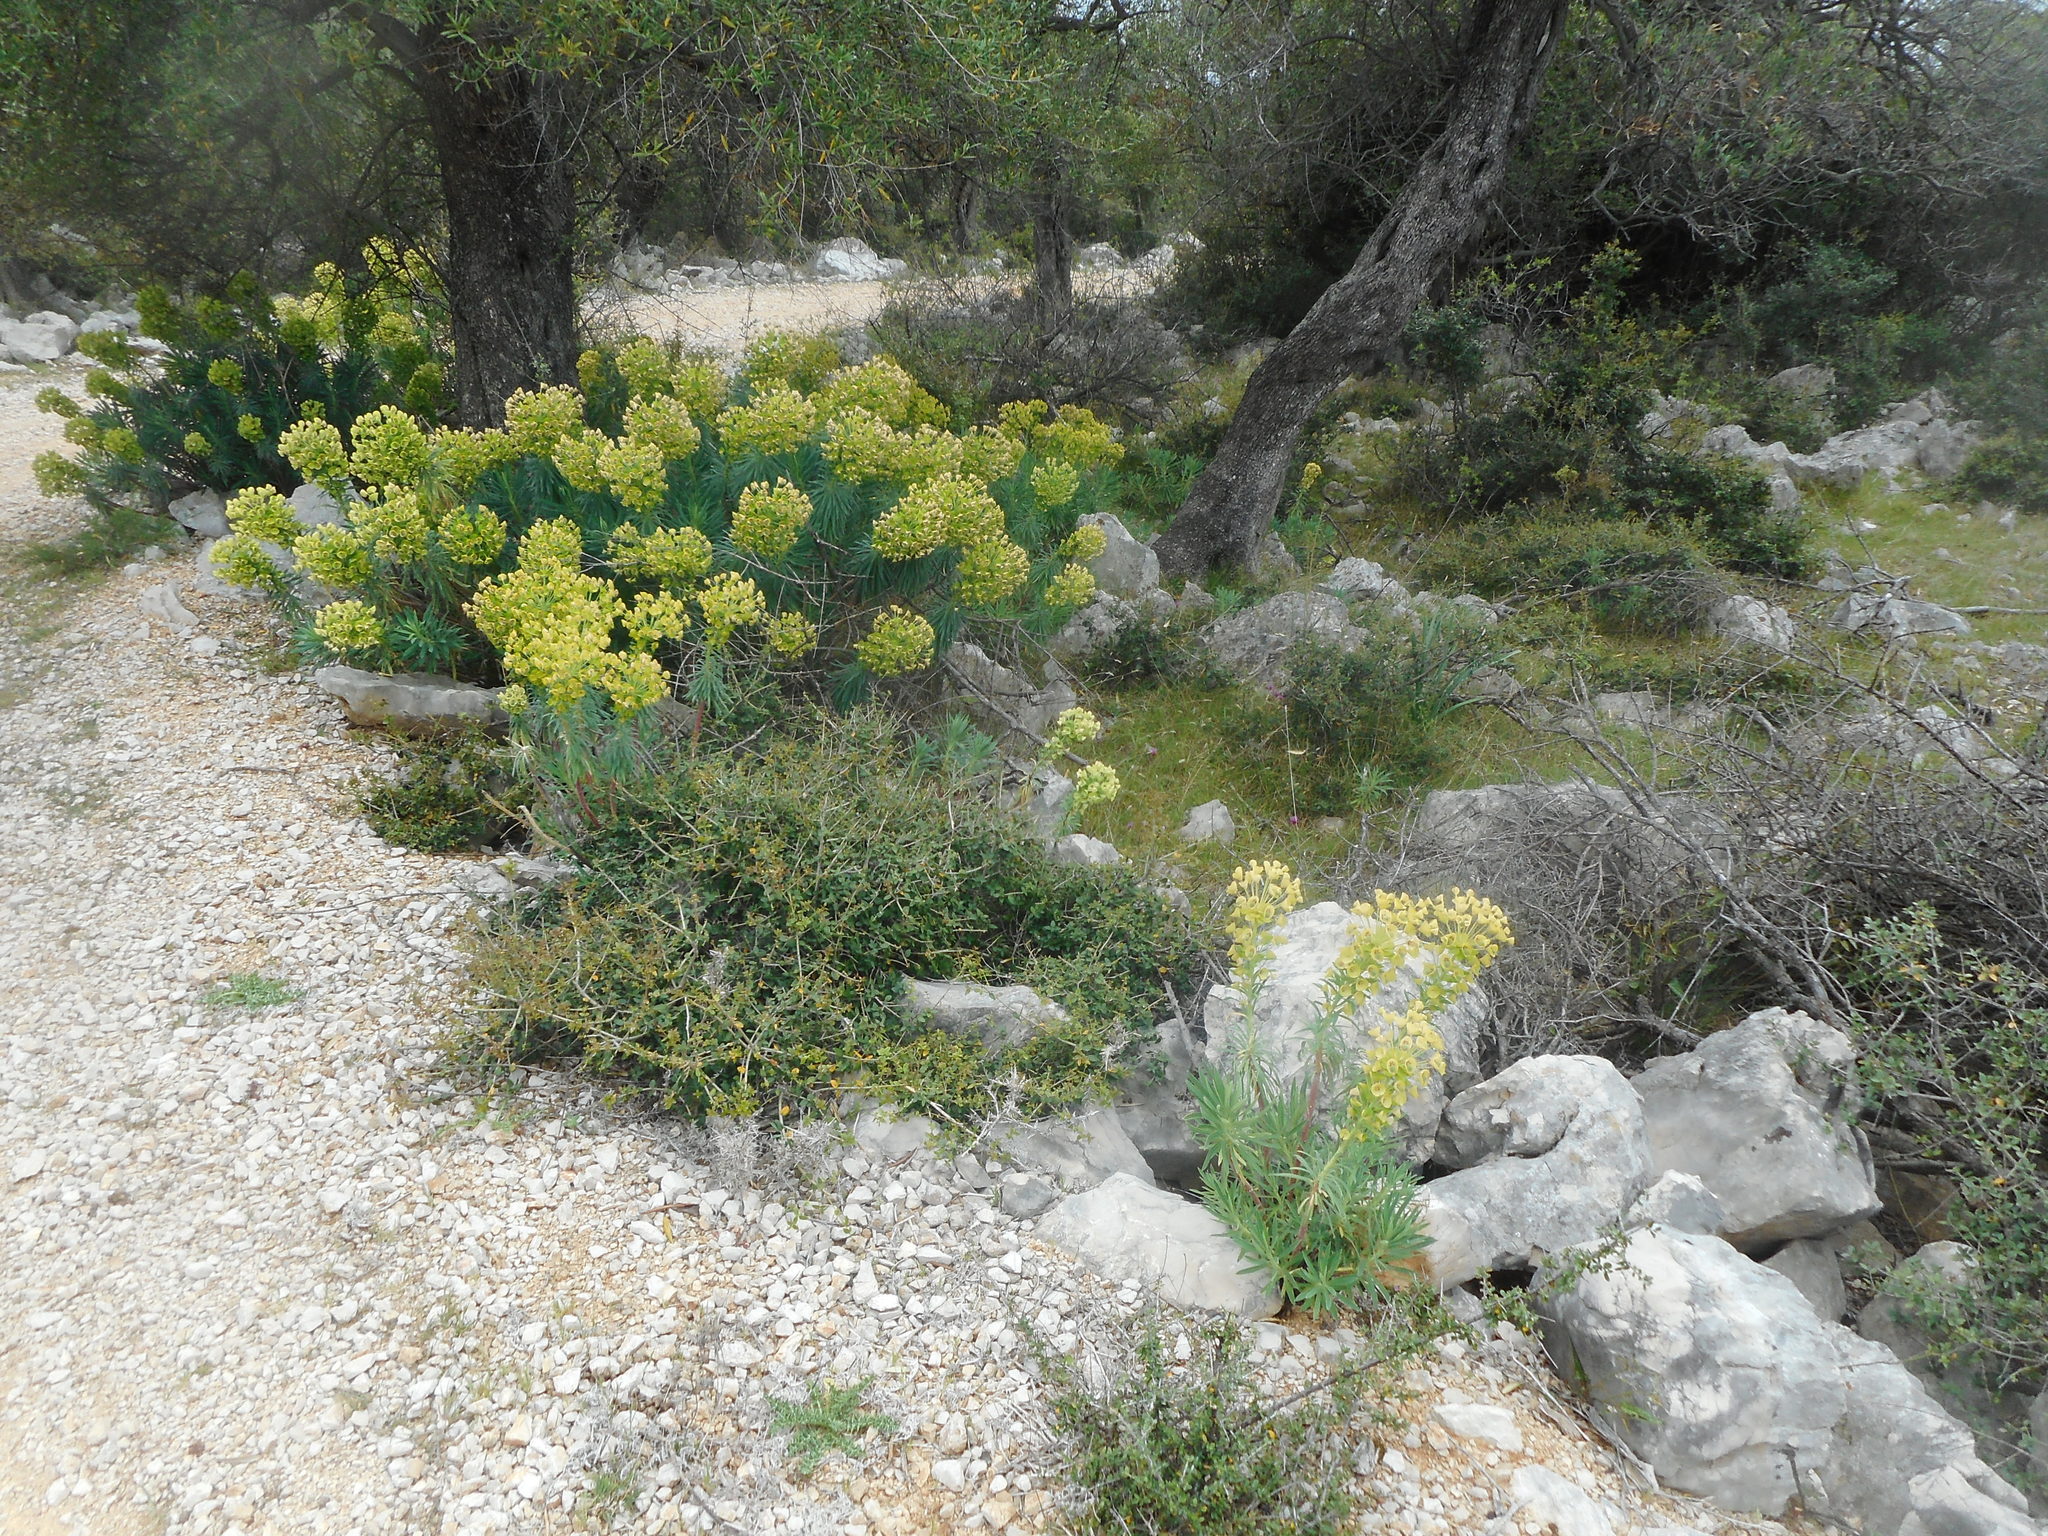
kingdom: Plantae
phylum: Tracheophyta
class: Magnoliopsida
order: Malpighiales
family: Euphorbiaceae
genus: Euphorbia
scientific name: Euphorbia characias
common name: Mediterranean spurge
